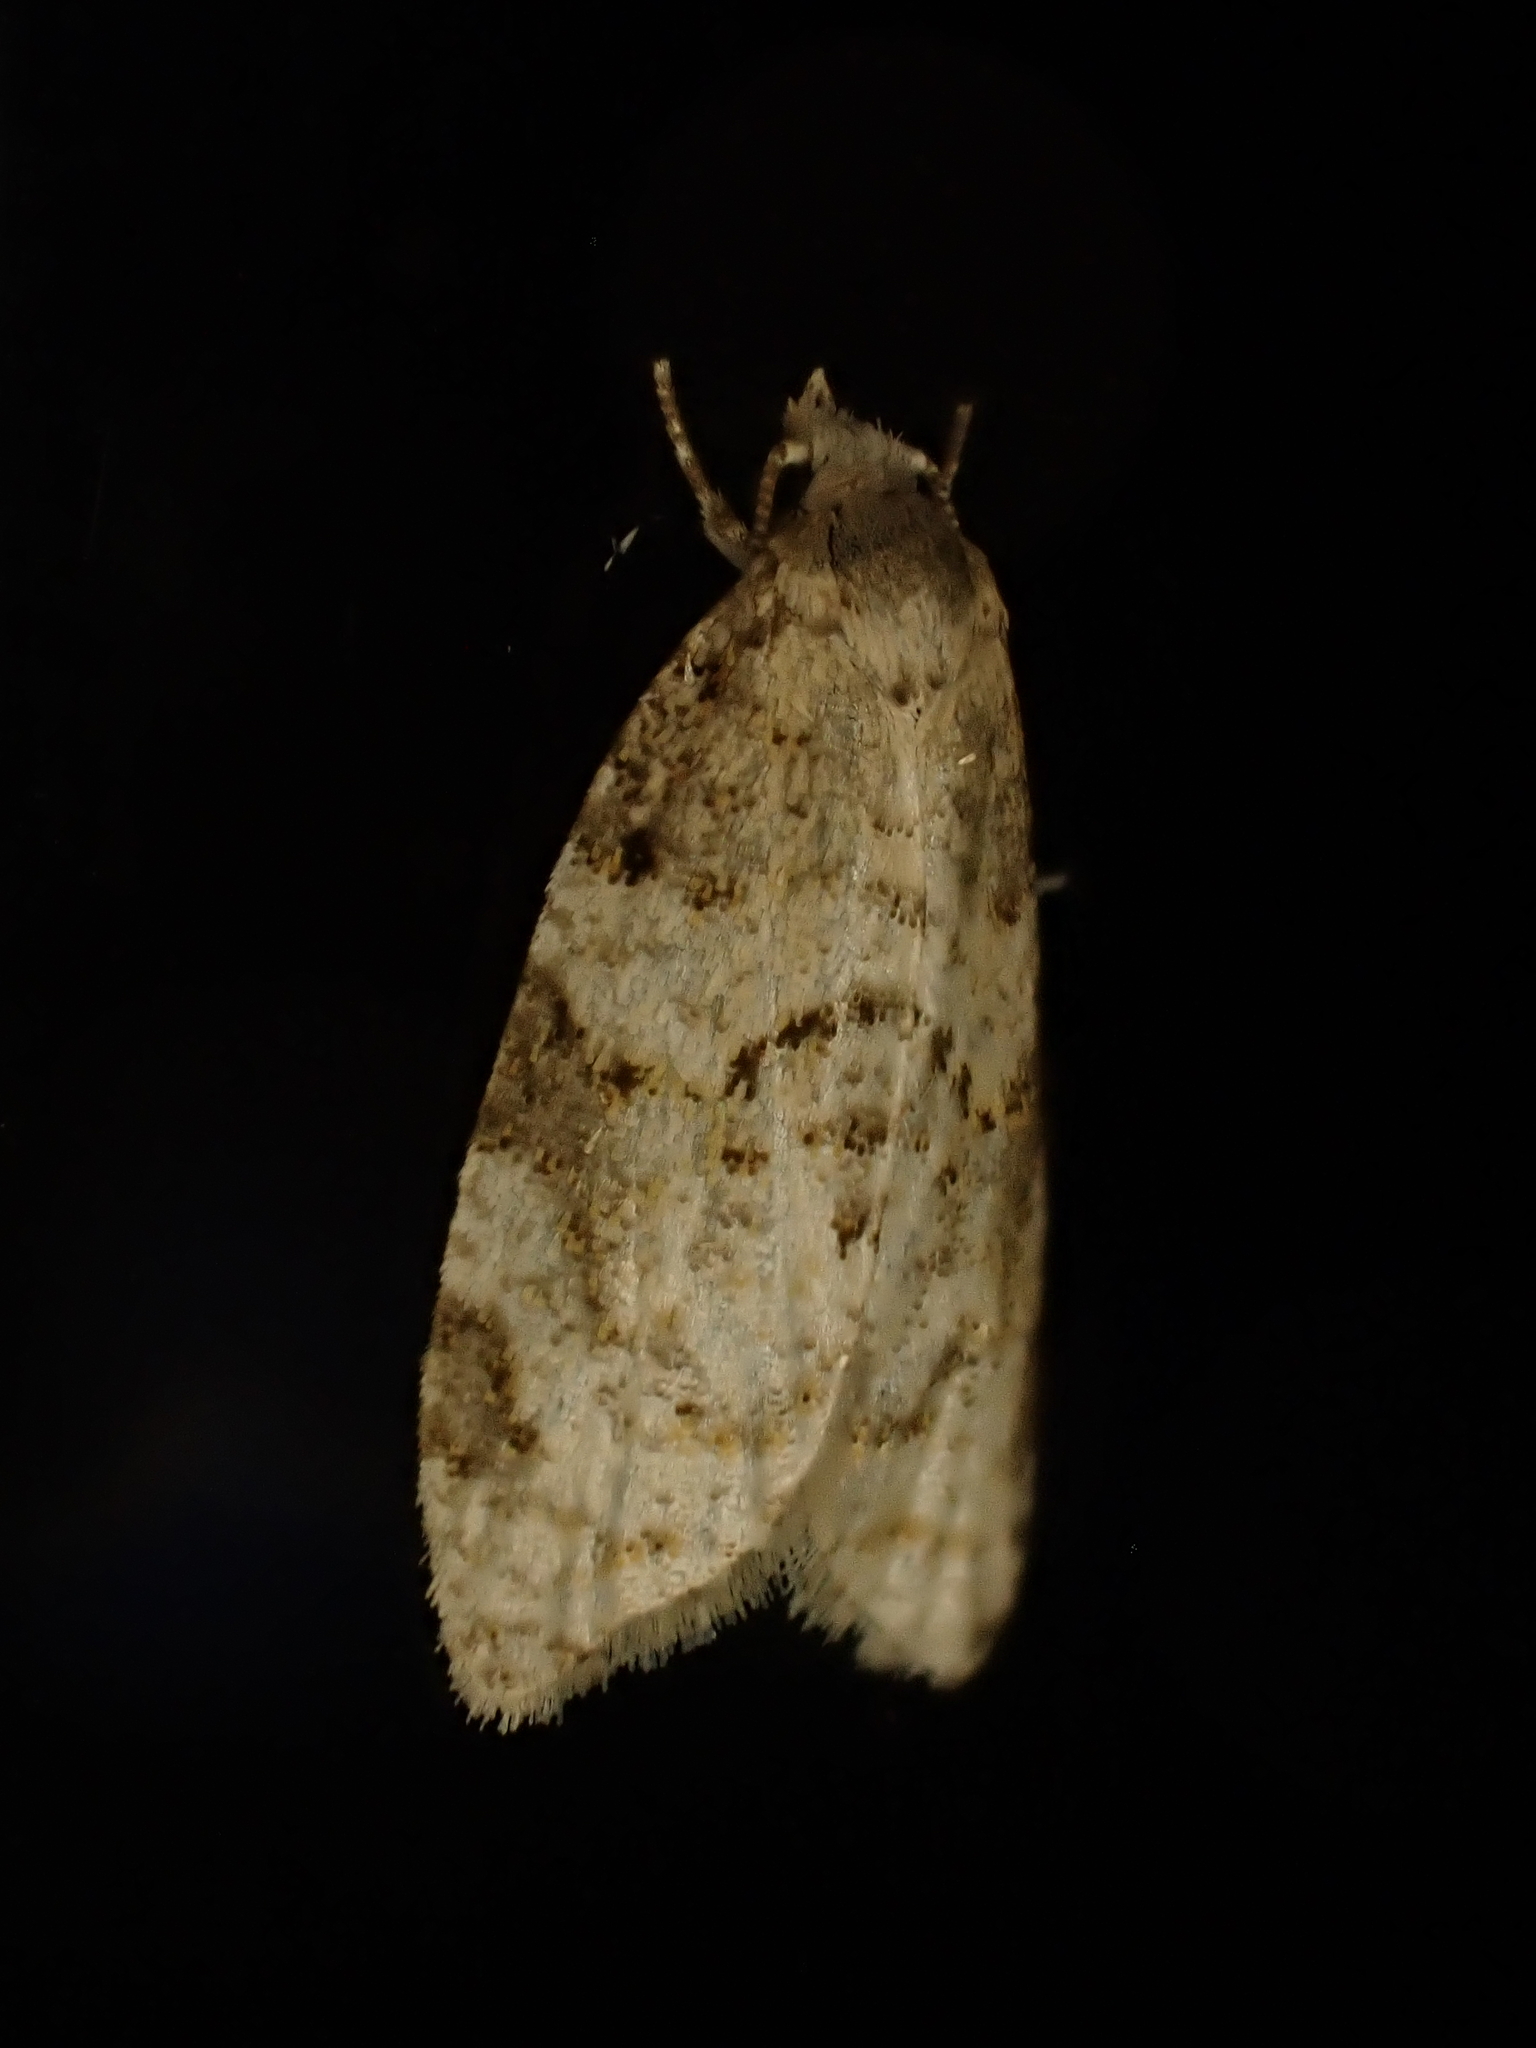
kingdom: Animalia
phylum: Arthropoda
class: Insecta
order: Lepidoptera
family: Tortricidae
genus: Dipterina
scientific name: Dipterina imbriferana
